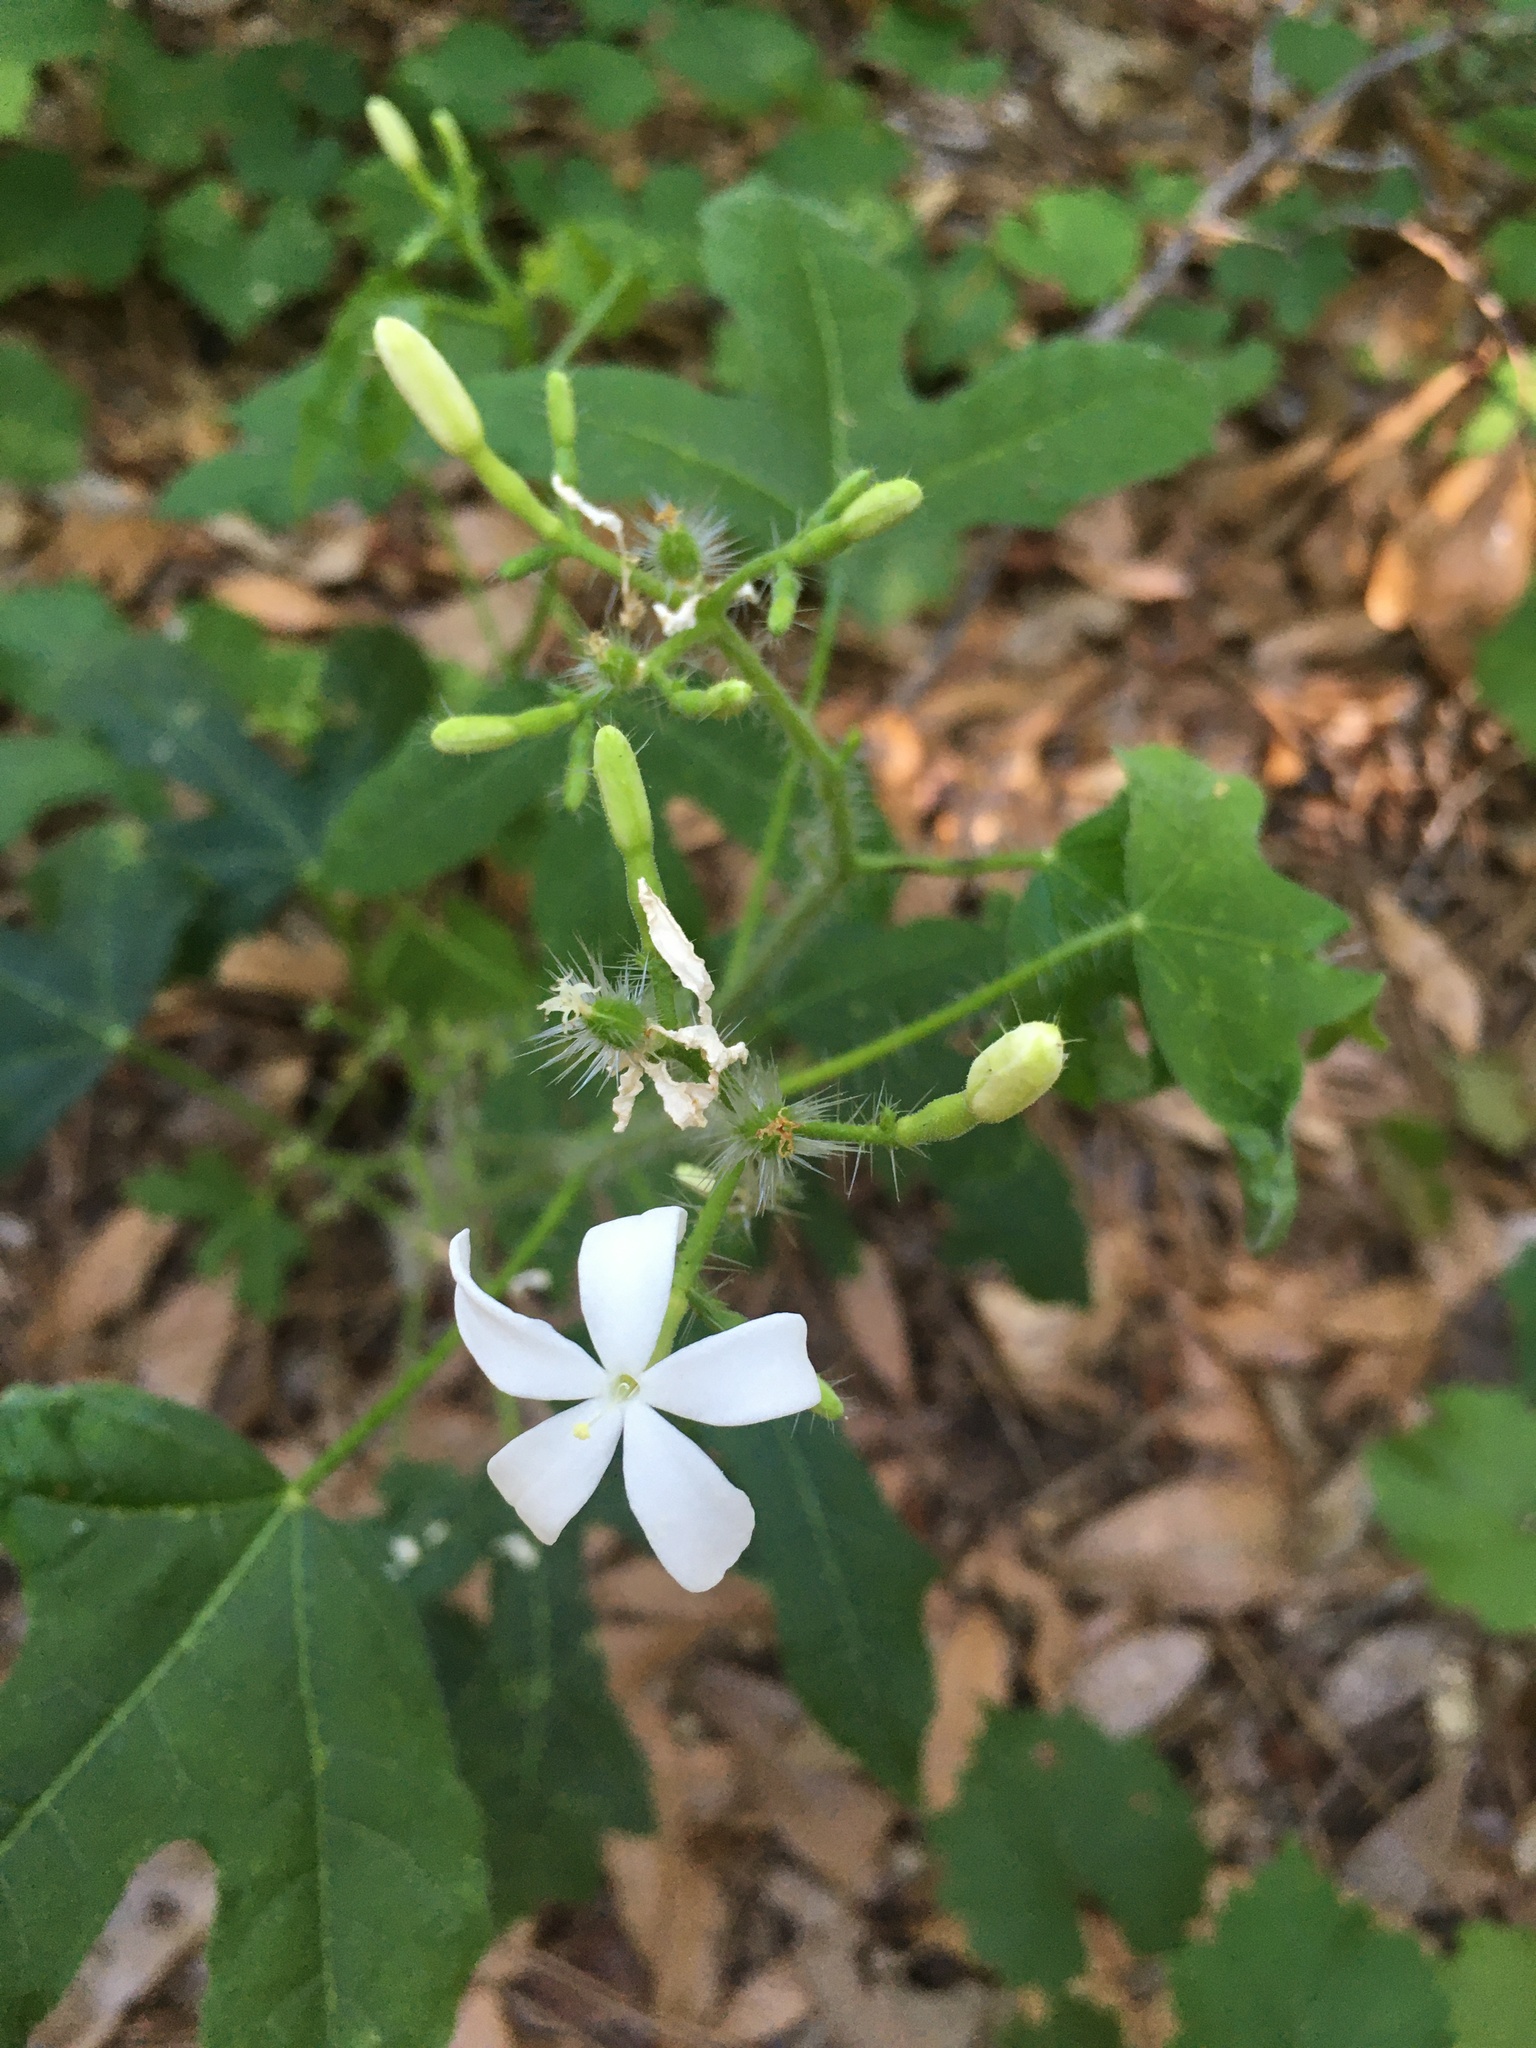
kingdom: Plantae
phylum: Tracheophyta
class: Magnoliopsida
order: Malpighiales
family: Euphorbiaceae
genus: Cnidoscolus
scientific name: Cnidoscolus stimulosus
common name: Bull-nettle
